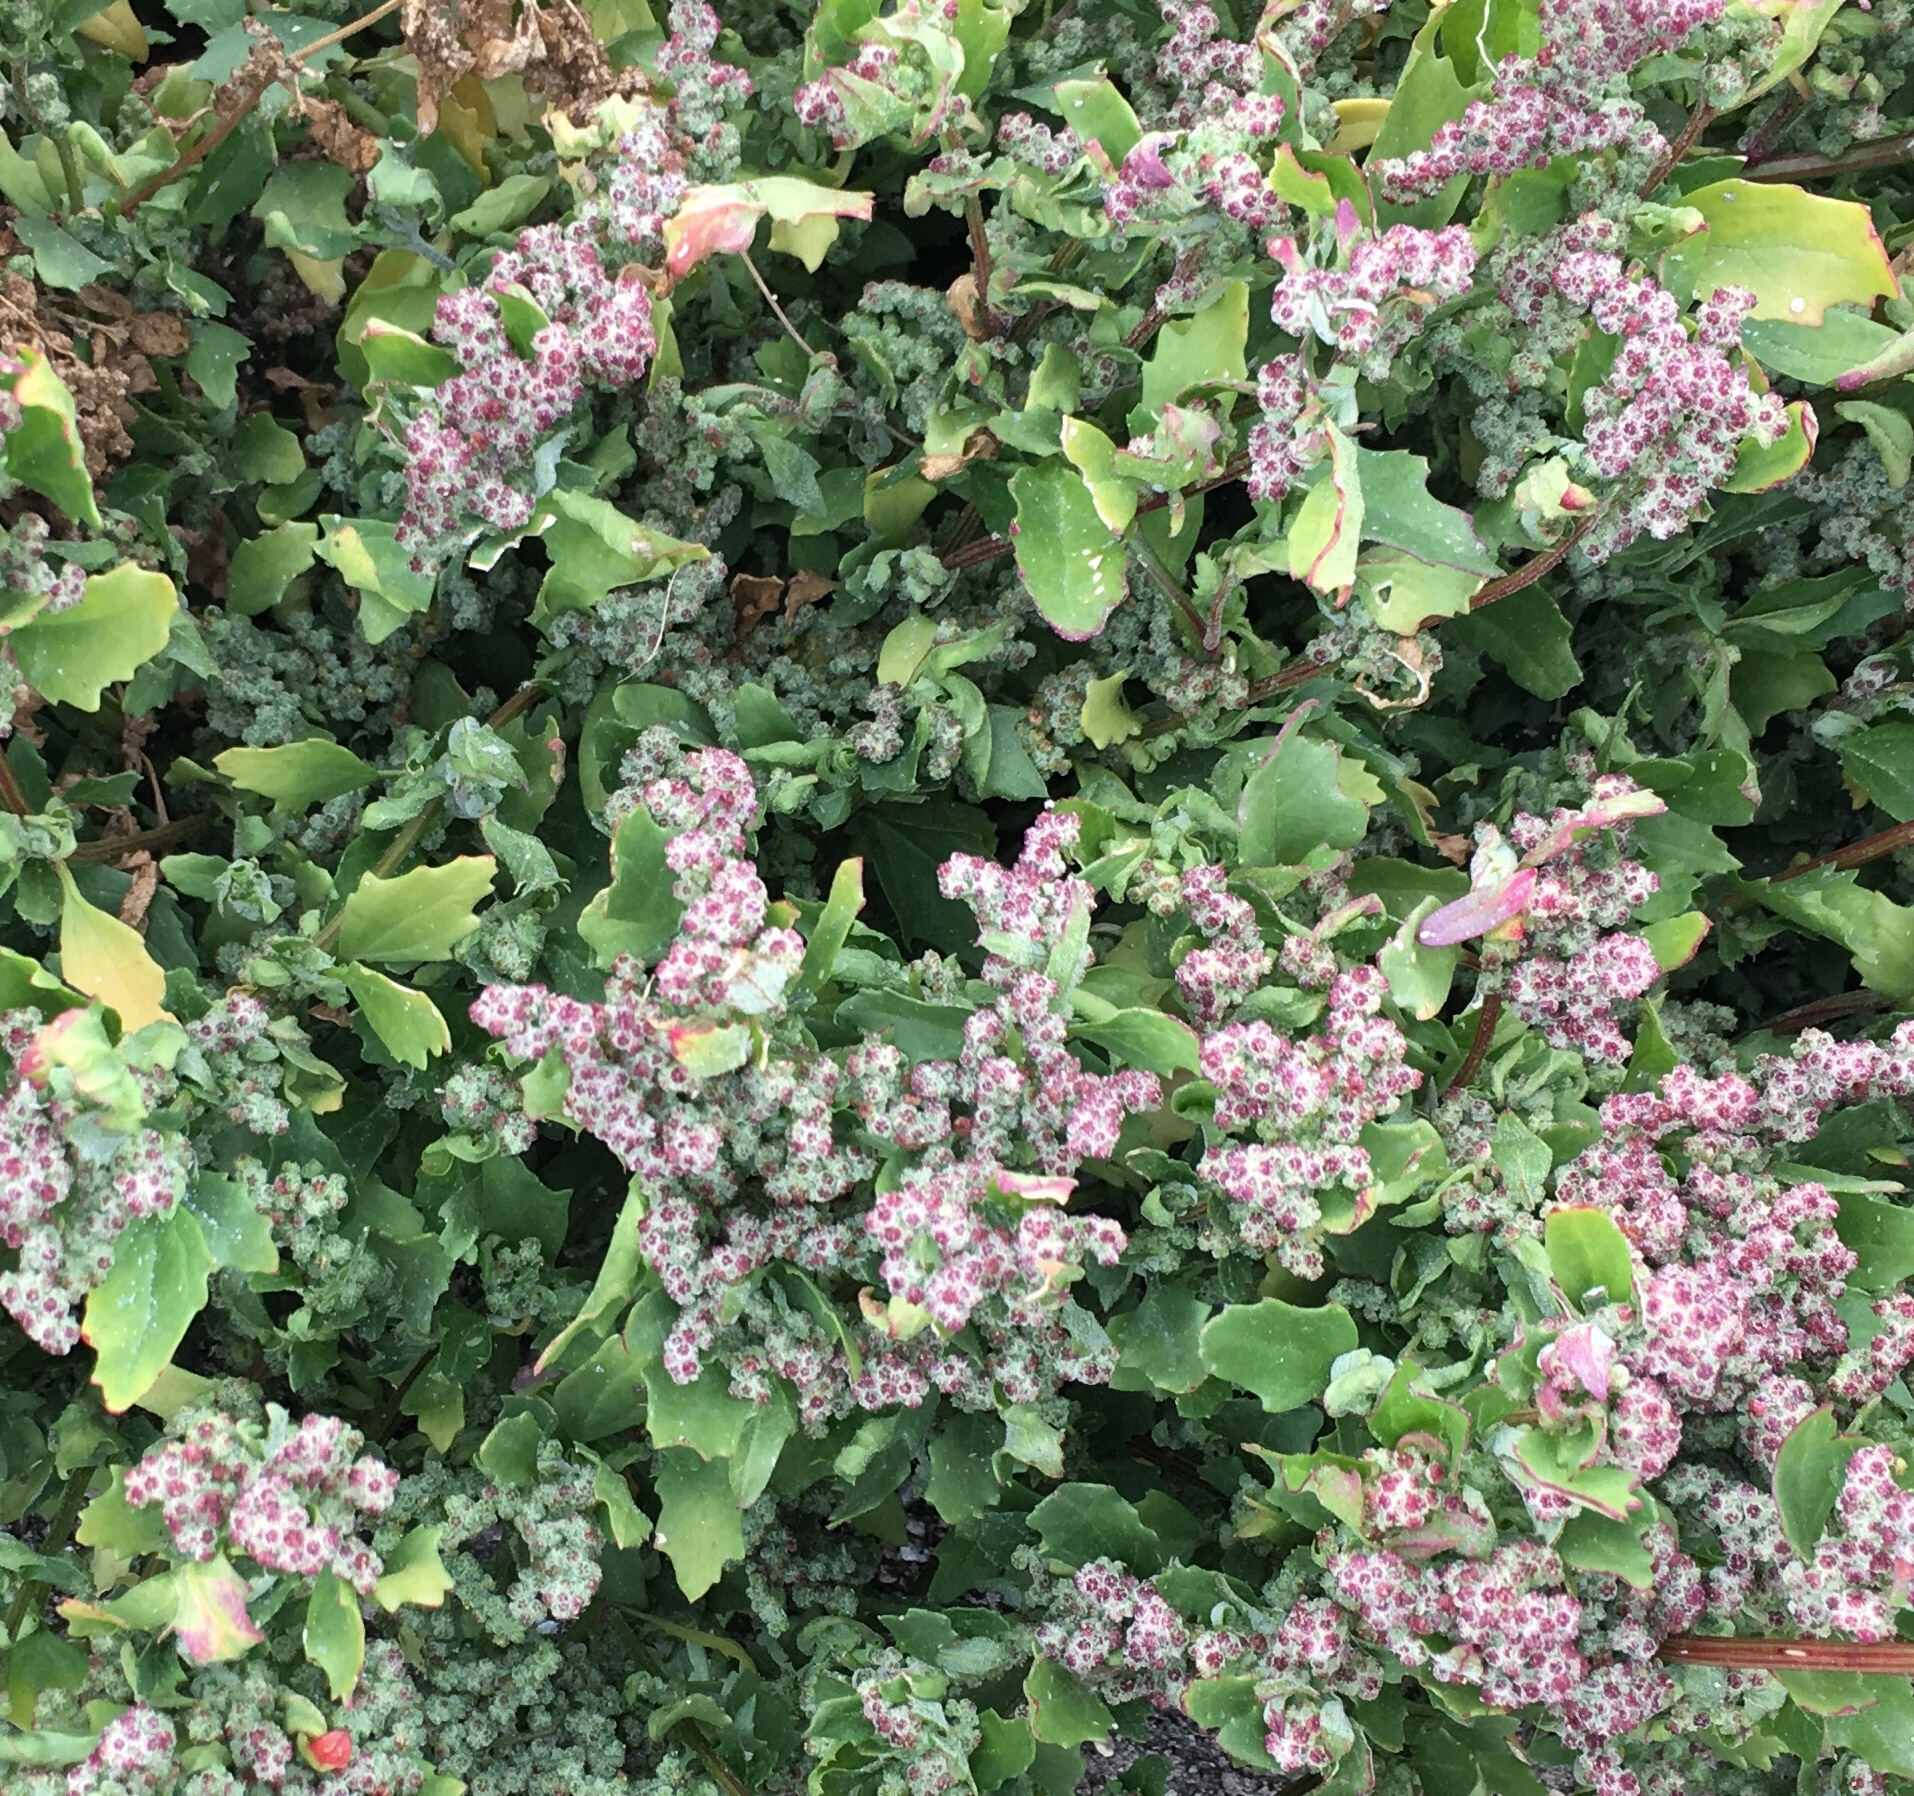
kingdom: Plantae
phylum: Tracheophyta
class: Magnoliopsida
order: Caryophyllales
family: Amaranthaceae
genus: Chenopodiastrum
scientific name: Chenopodiastrum murale
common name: Sowbane
